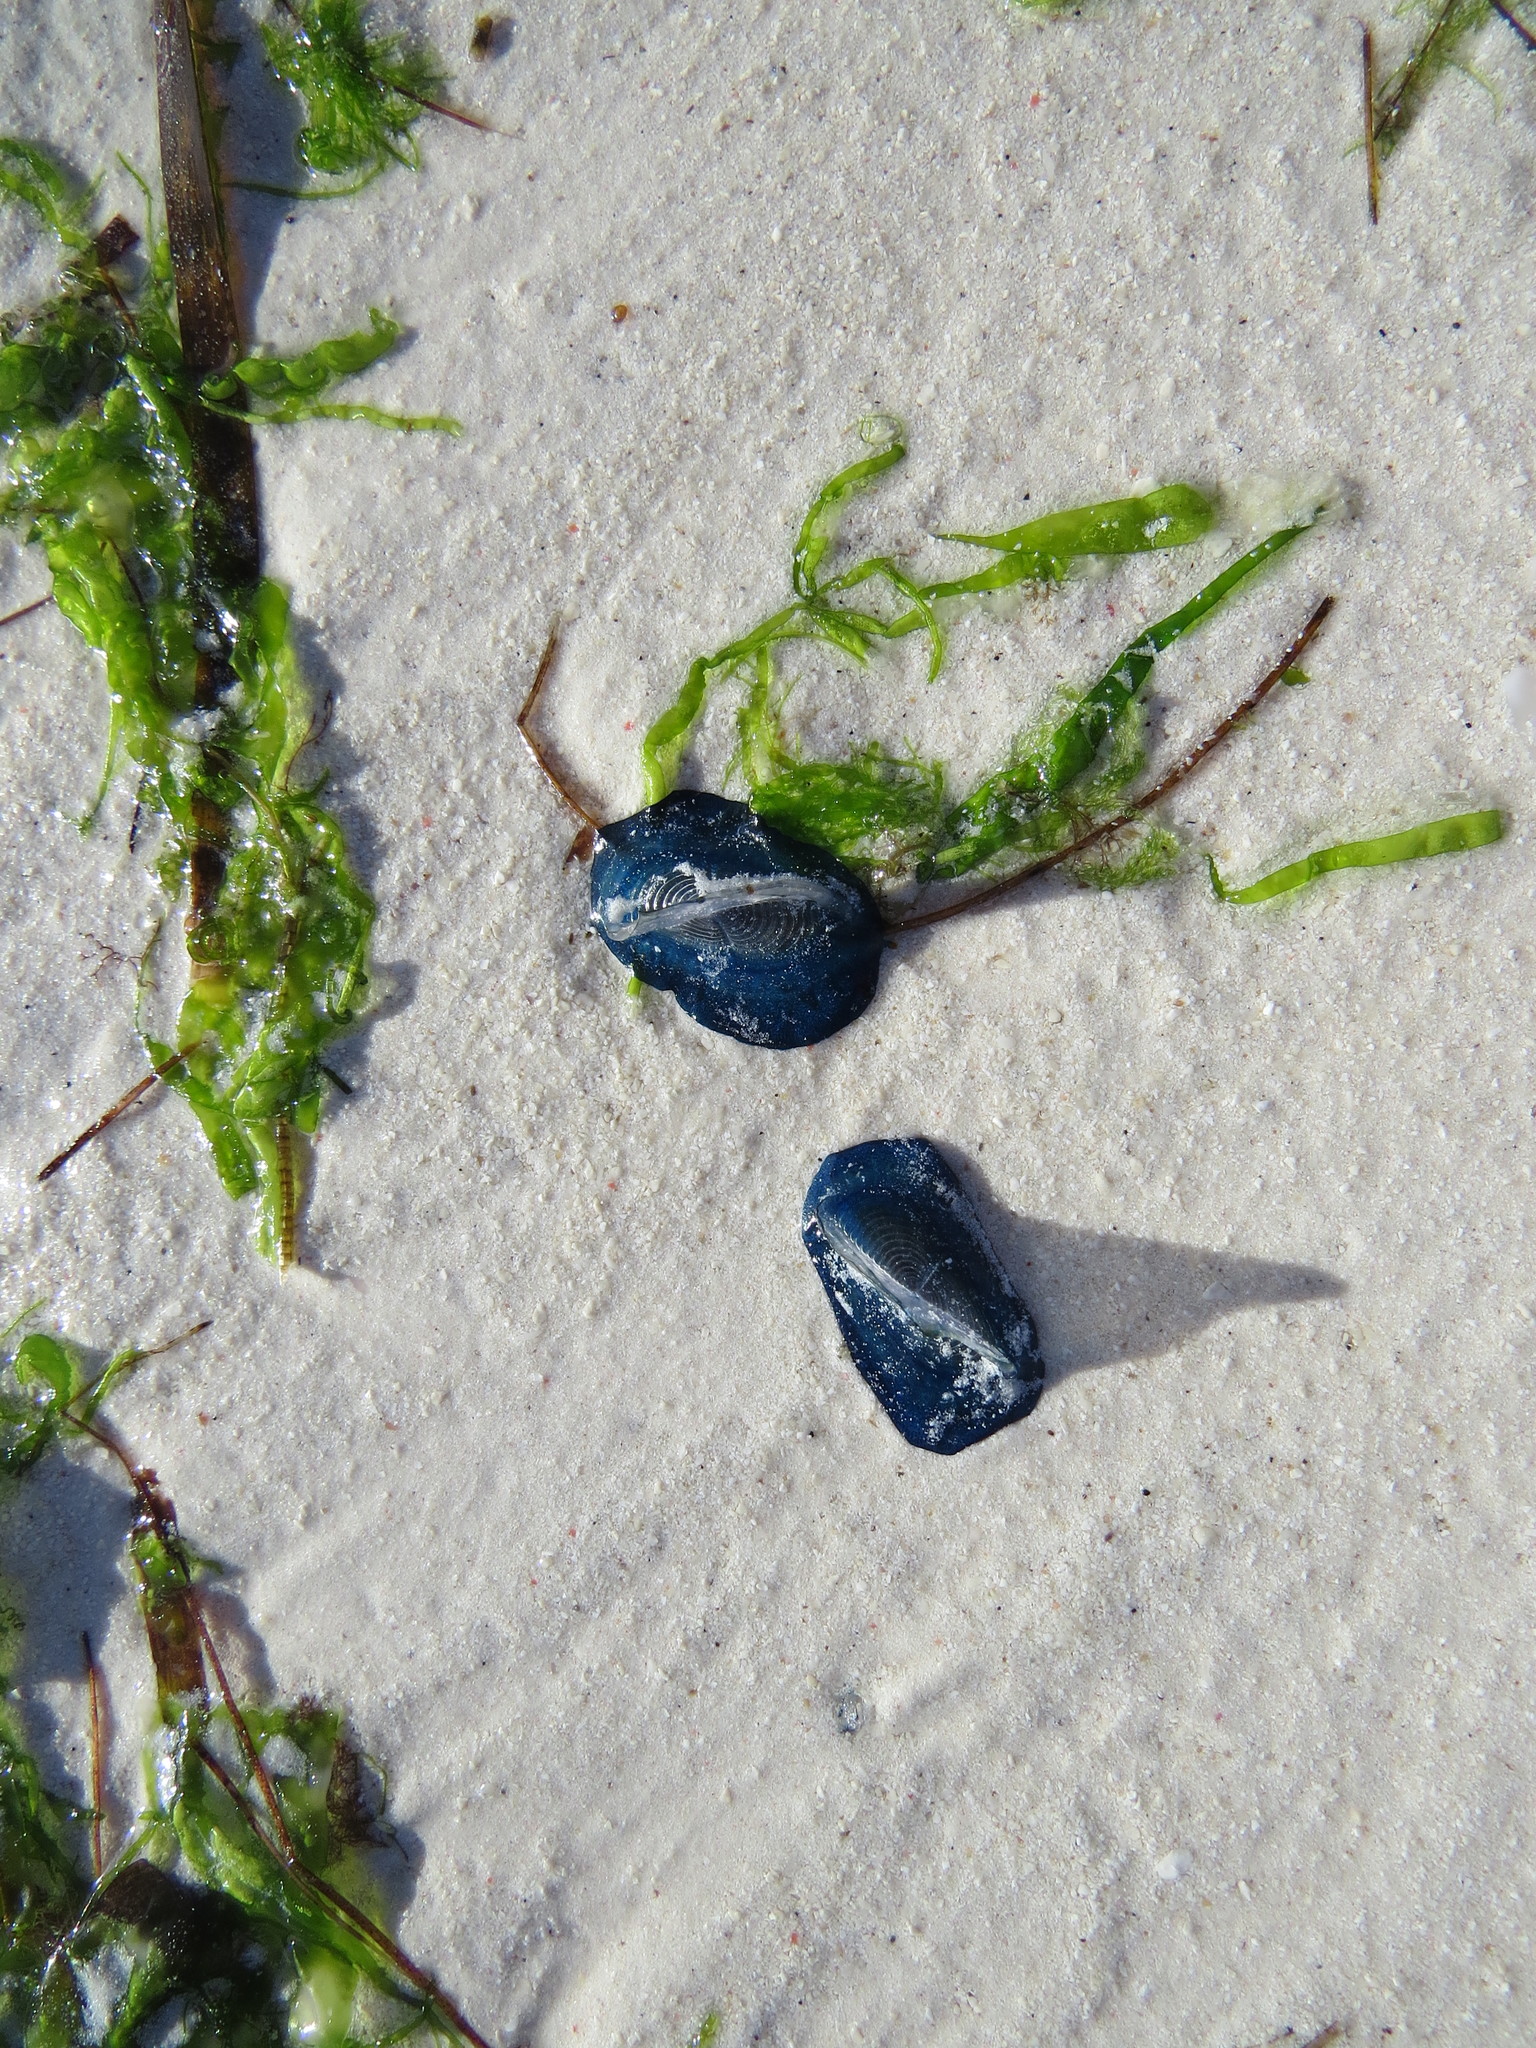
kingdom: Animalia
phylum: Cnidaria
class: Hydrozoa
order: Anthoathecata
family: Porpitidae
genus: Velella
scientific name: Velella velella
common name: By-the-wind-sailor
